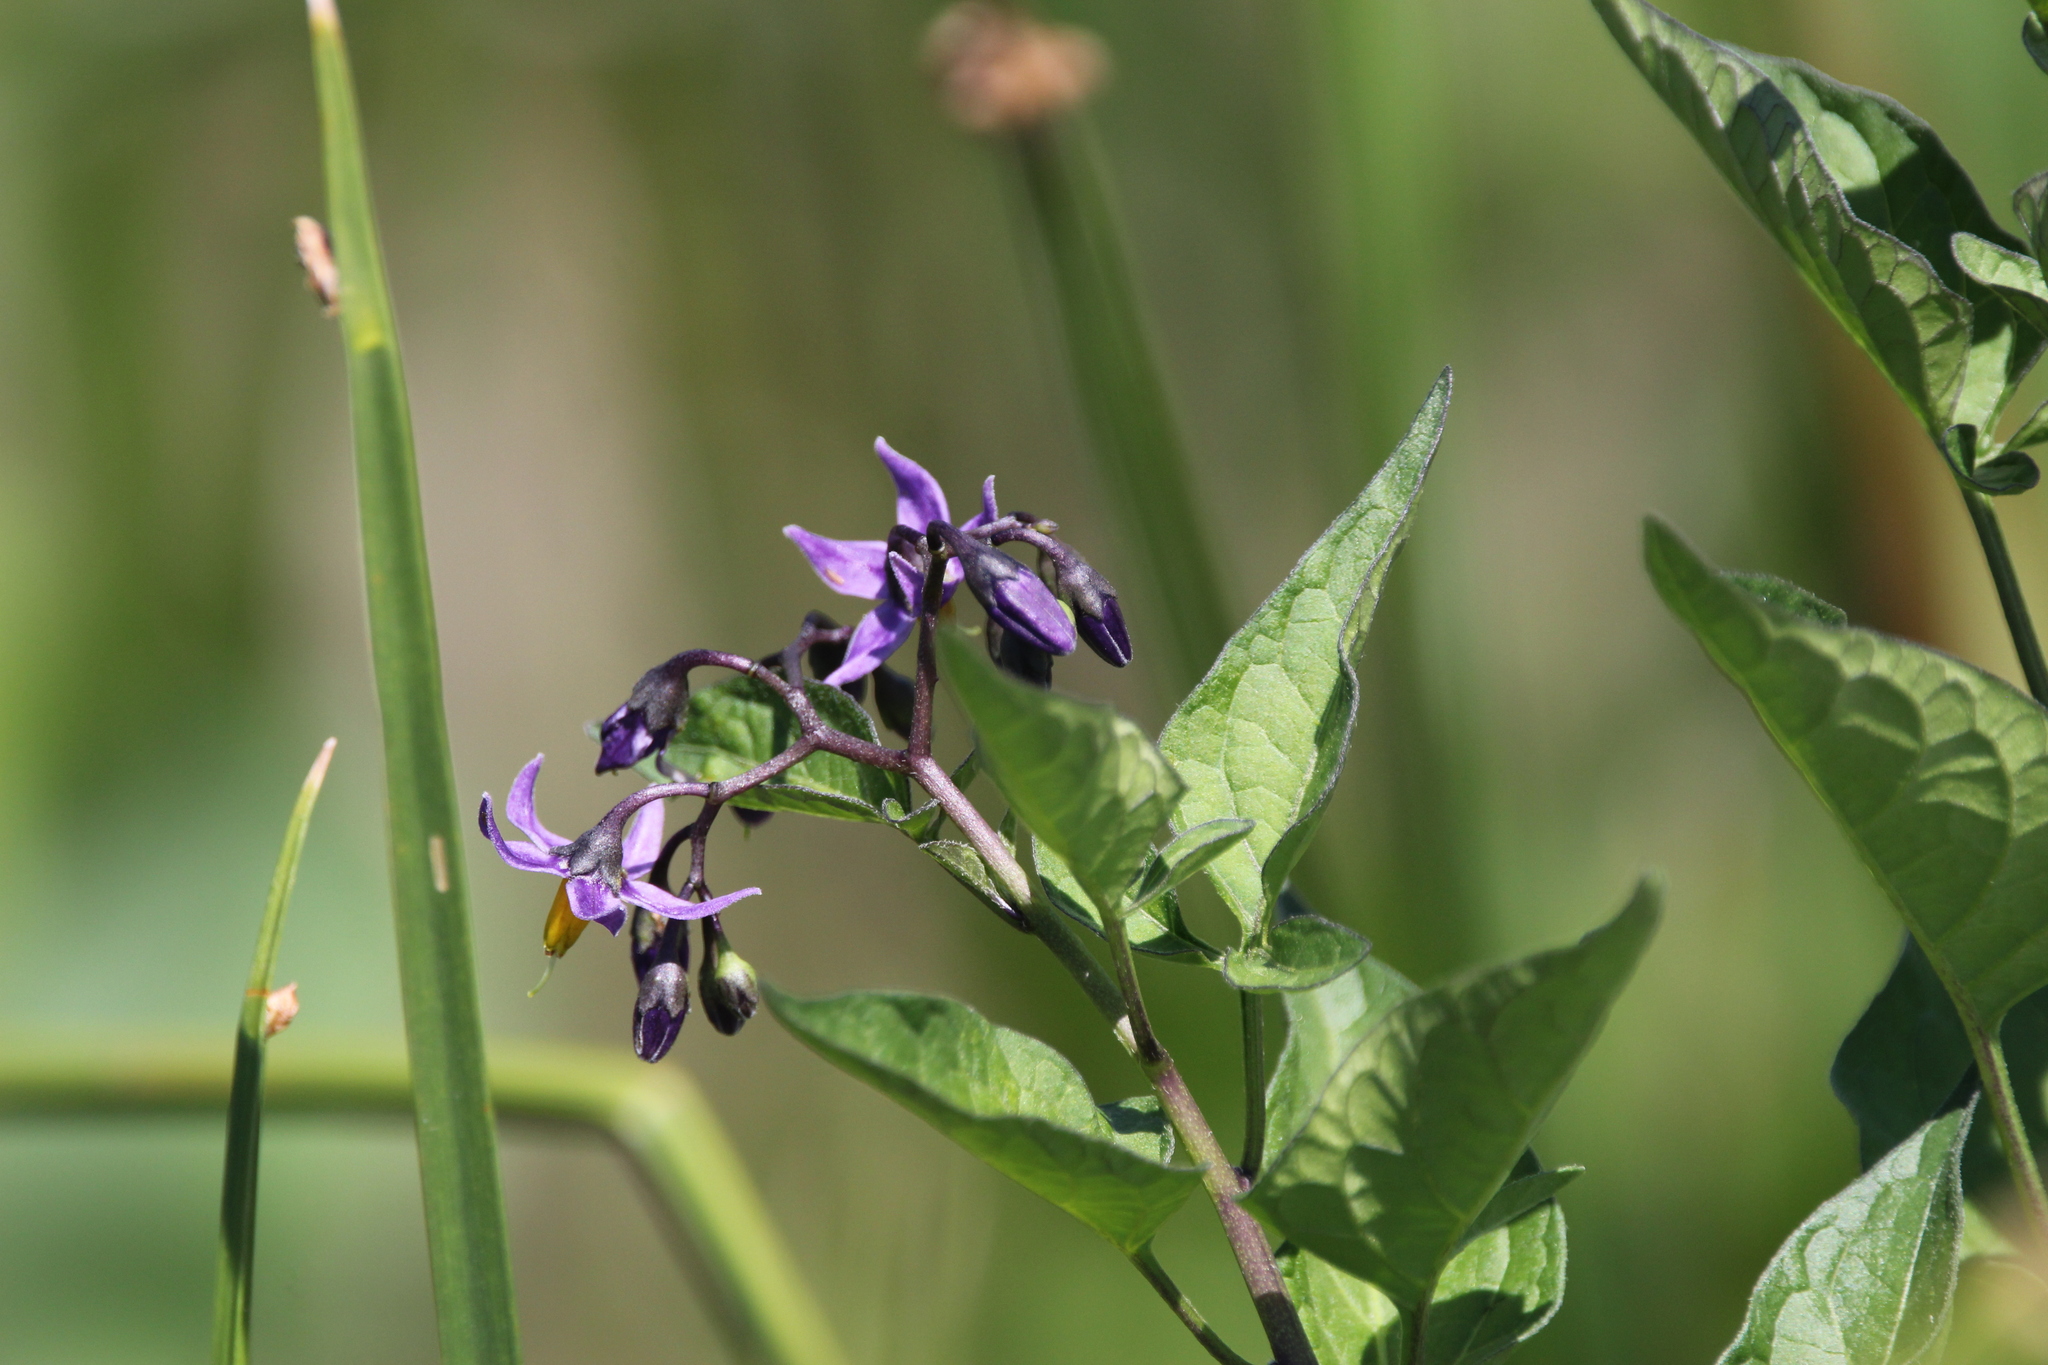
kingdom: Plantae
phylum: Tracheophyta
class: Magnoliopsida
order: Solanales
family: Solanaceae
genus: Solanum
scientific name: Solanum dulcamara
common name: Climbing nightshade
